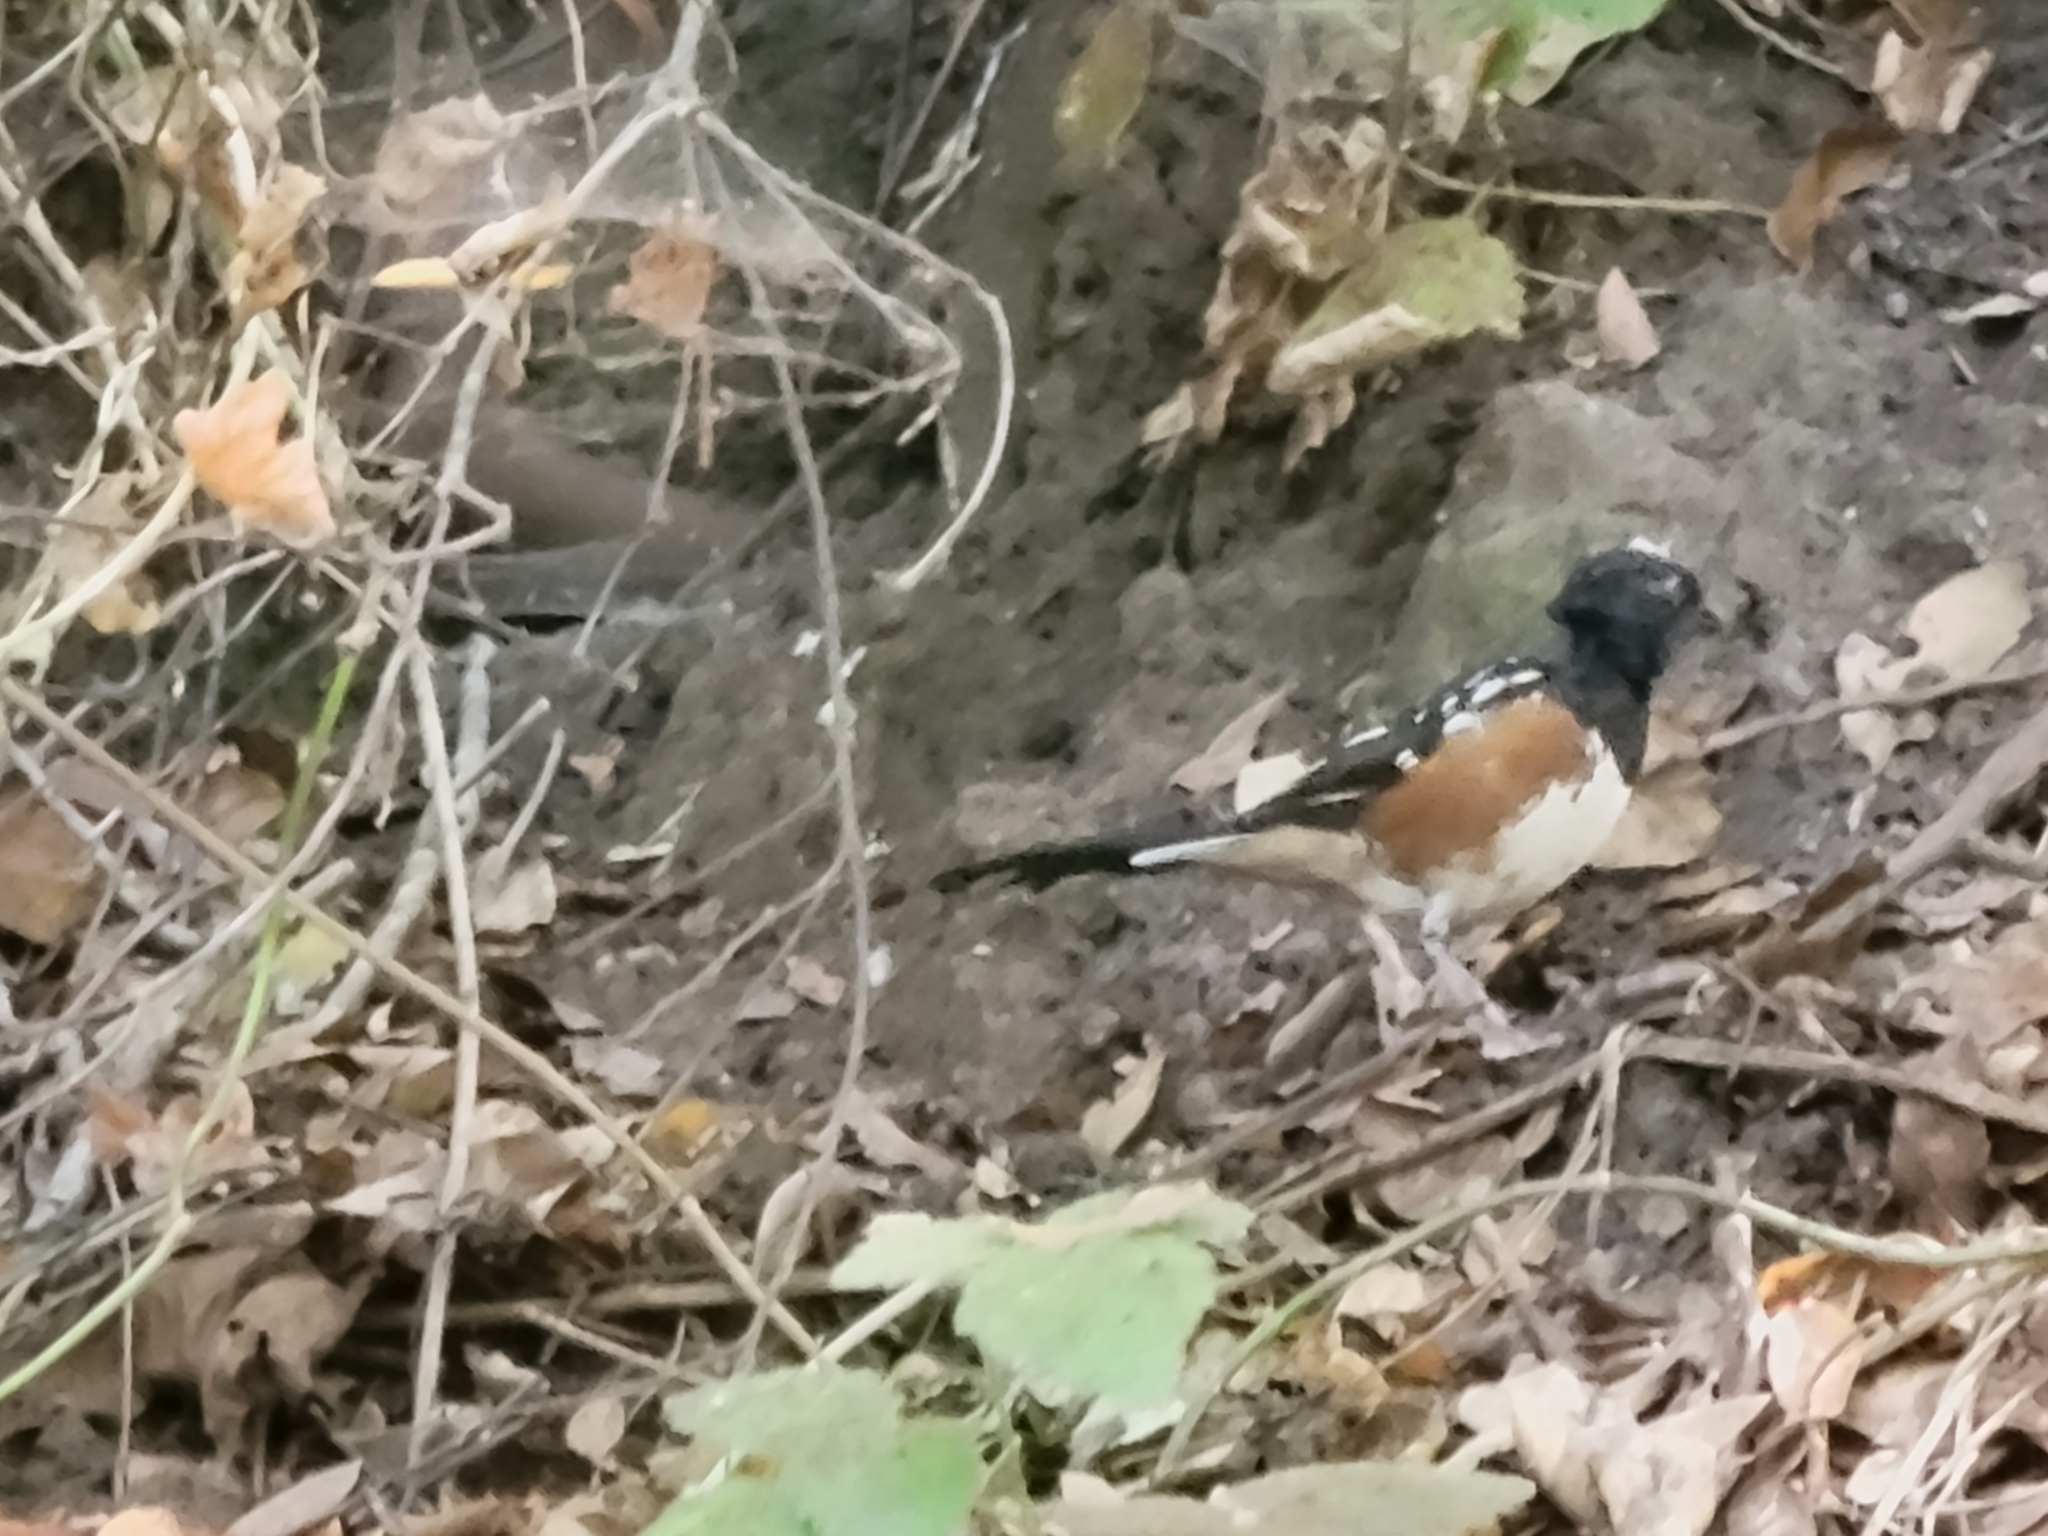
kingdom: Animalia
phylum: Chordata
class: Aves
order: Passeriformes
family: Passerellidae
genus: Pipilo
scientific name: Pipilo maculatus
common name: Spotted towhee
